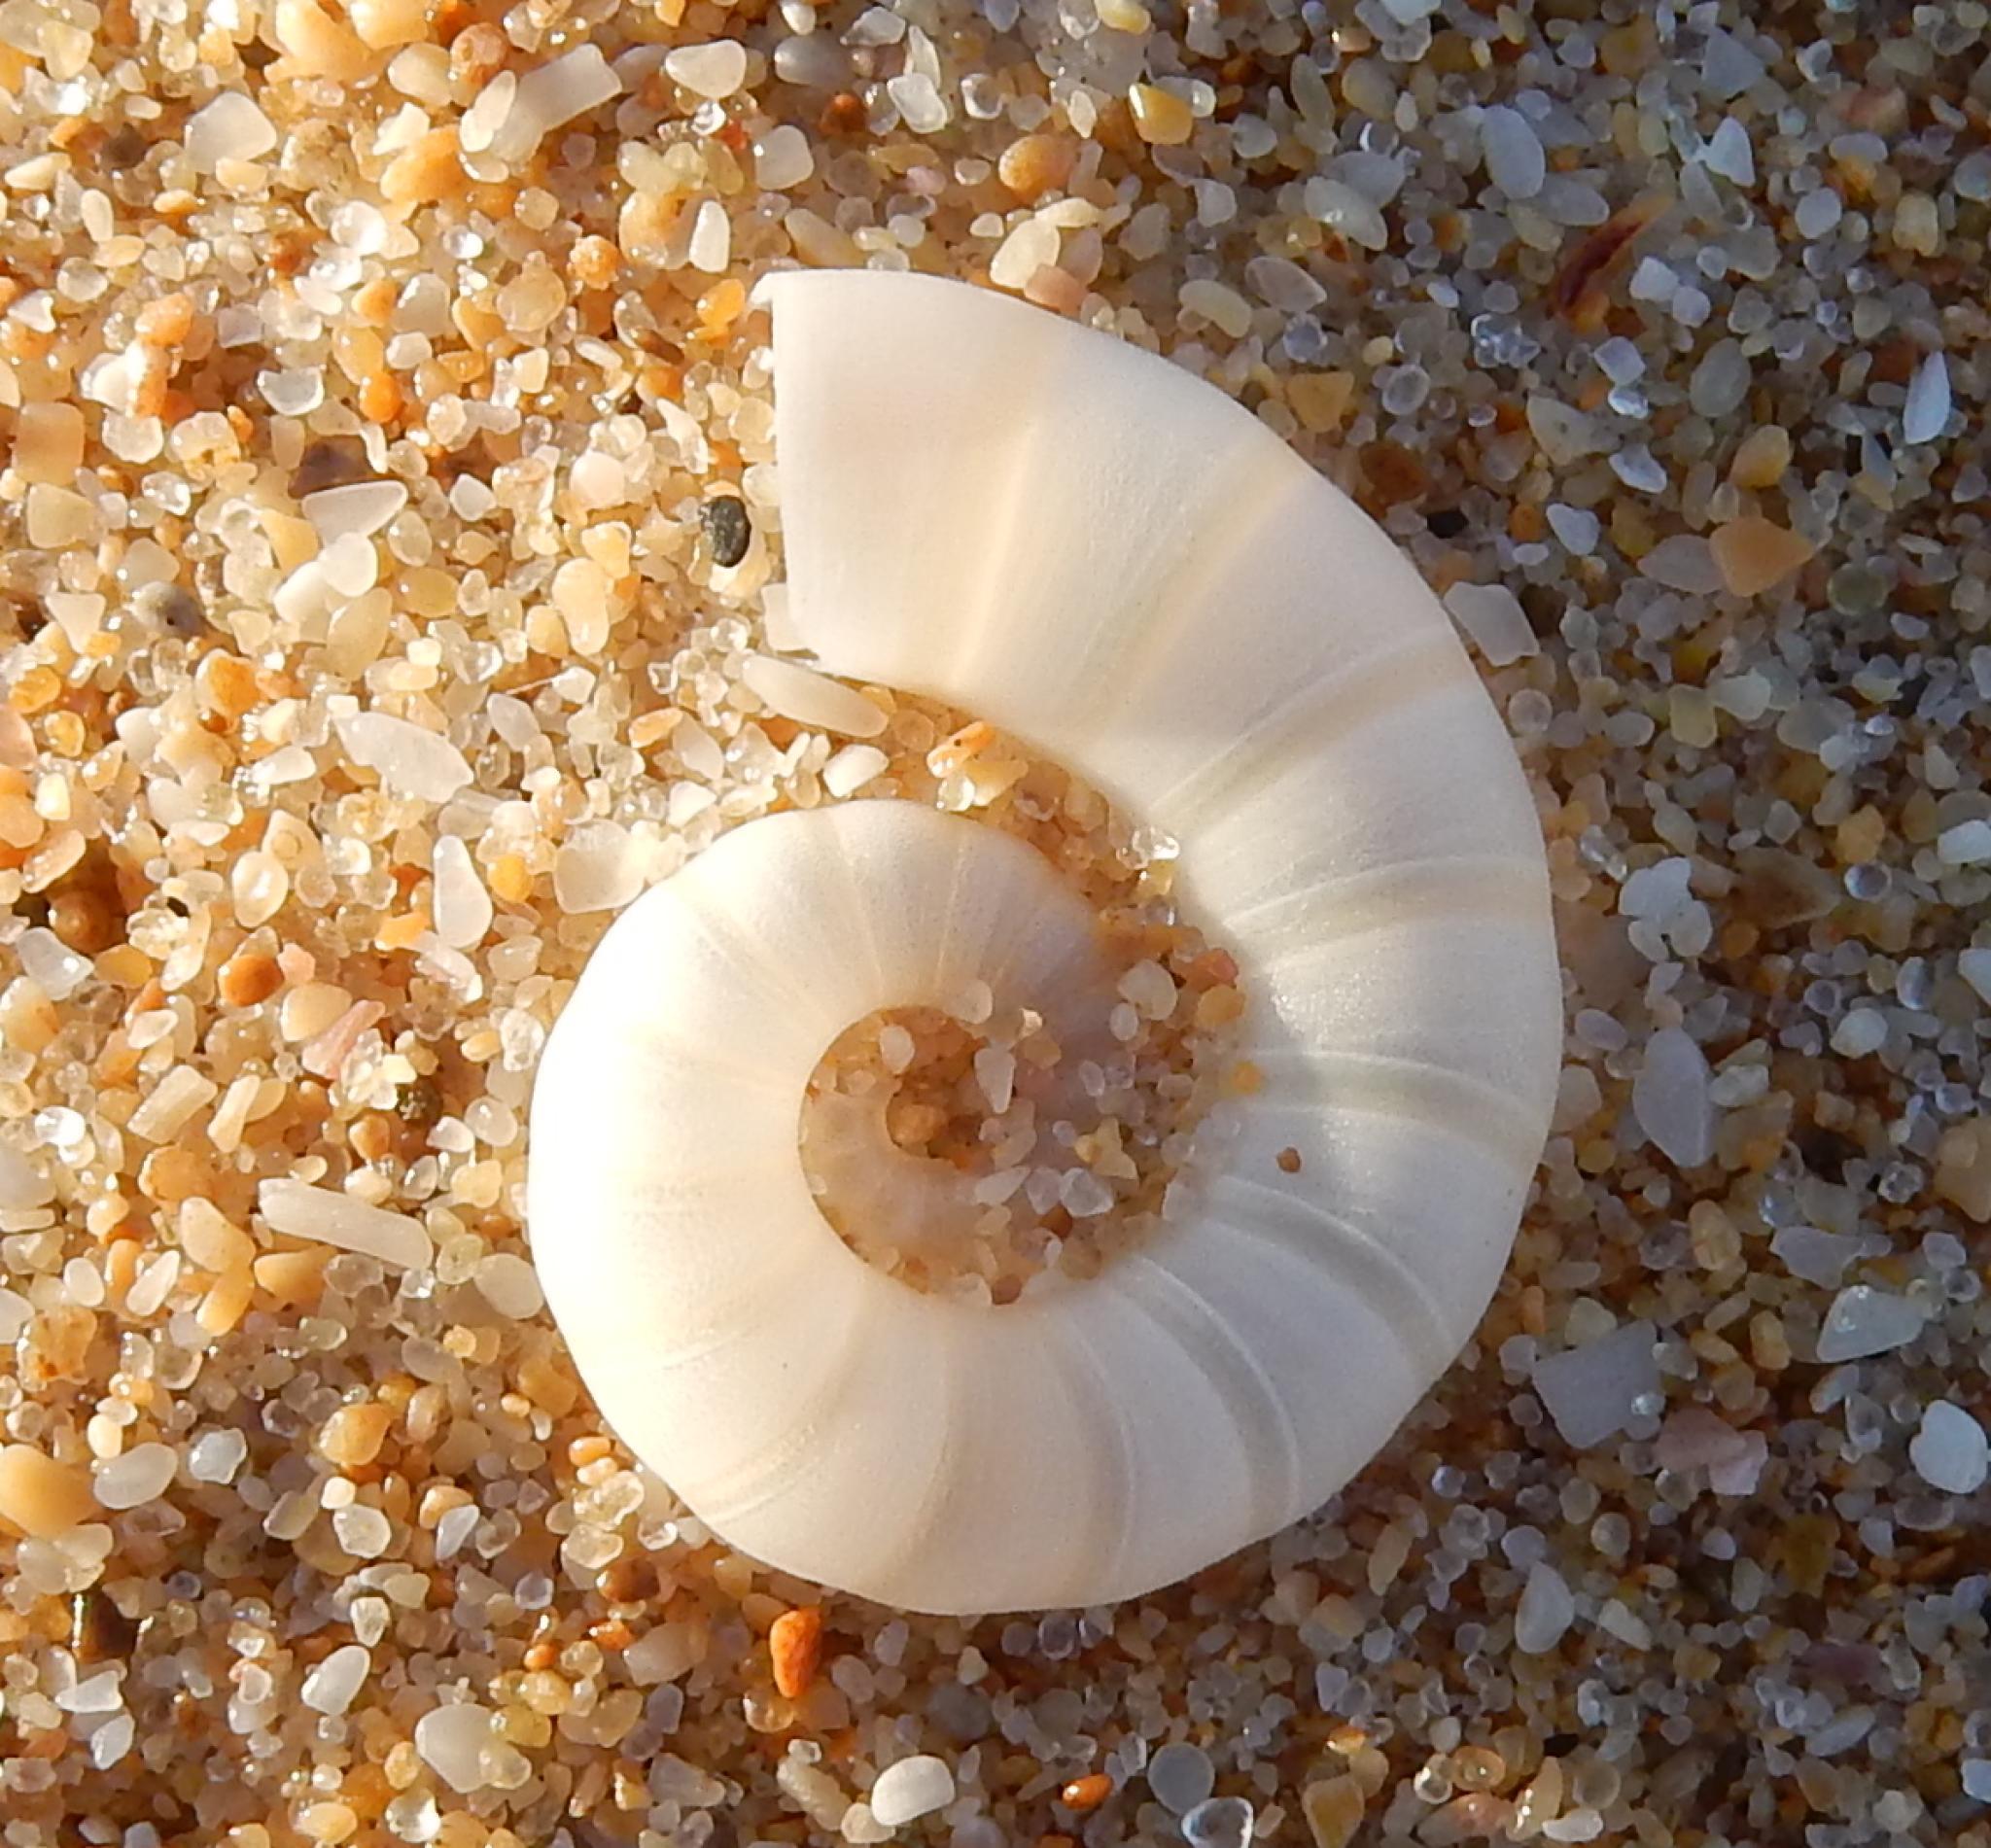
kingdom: Animalia
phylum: Mollusca
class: Cephalopoda
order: Spirulida
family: Spirulidae
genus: Spirula
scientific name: Spirula spirula
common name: Ram's horn squid
